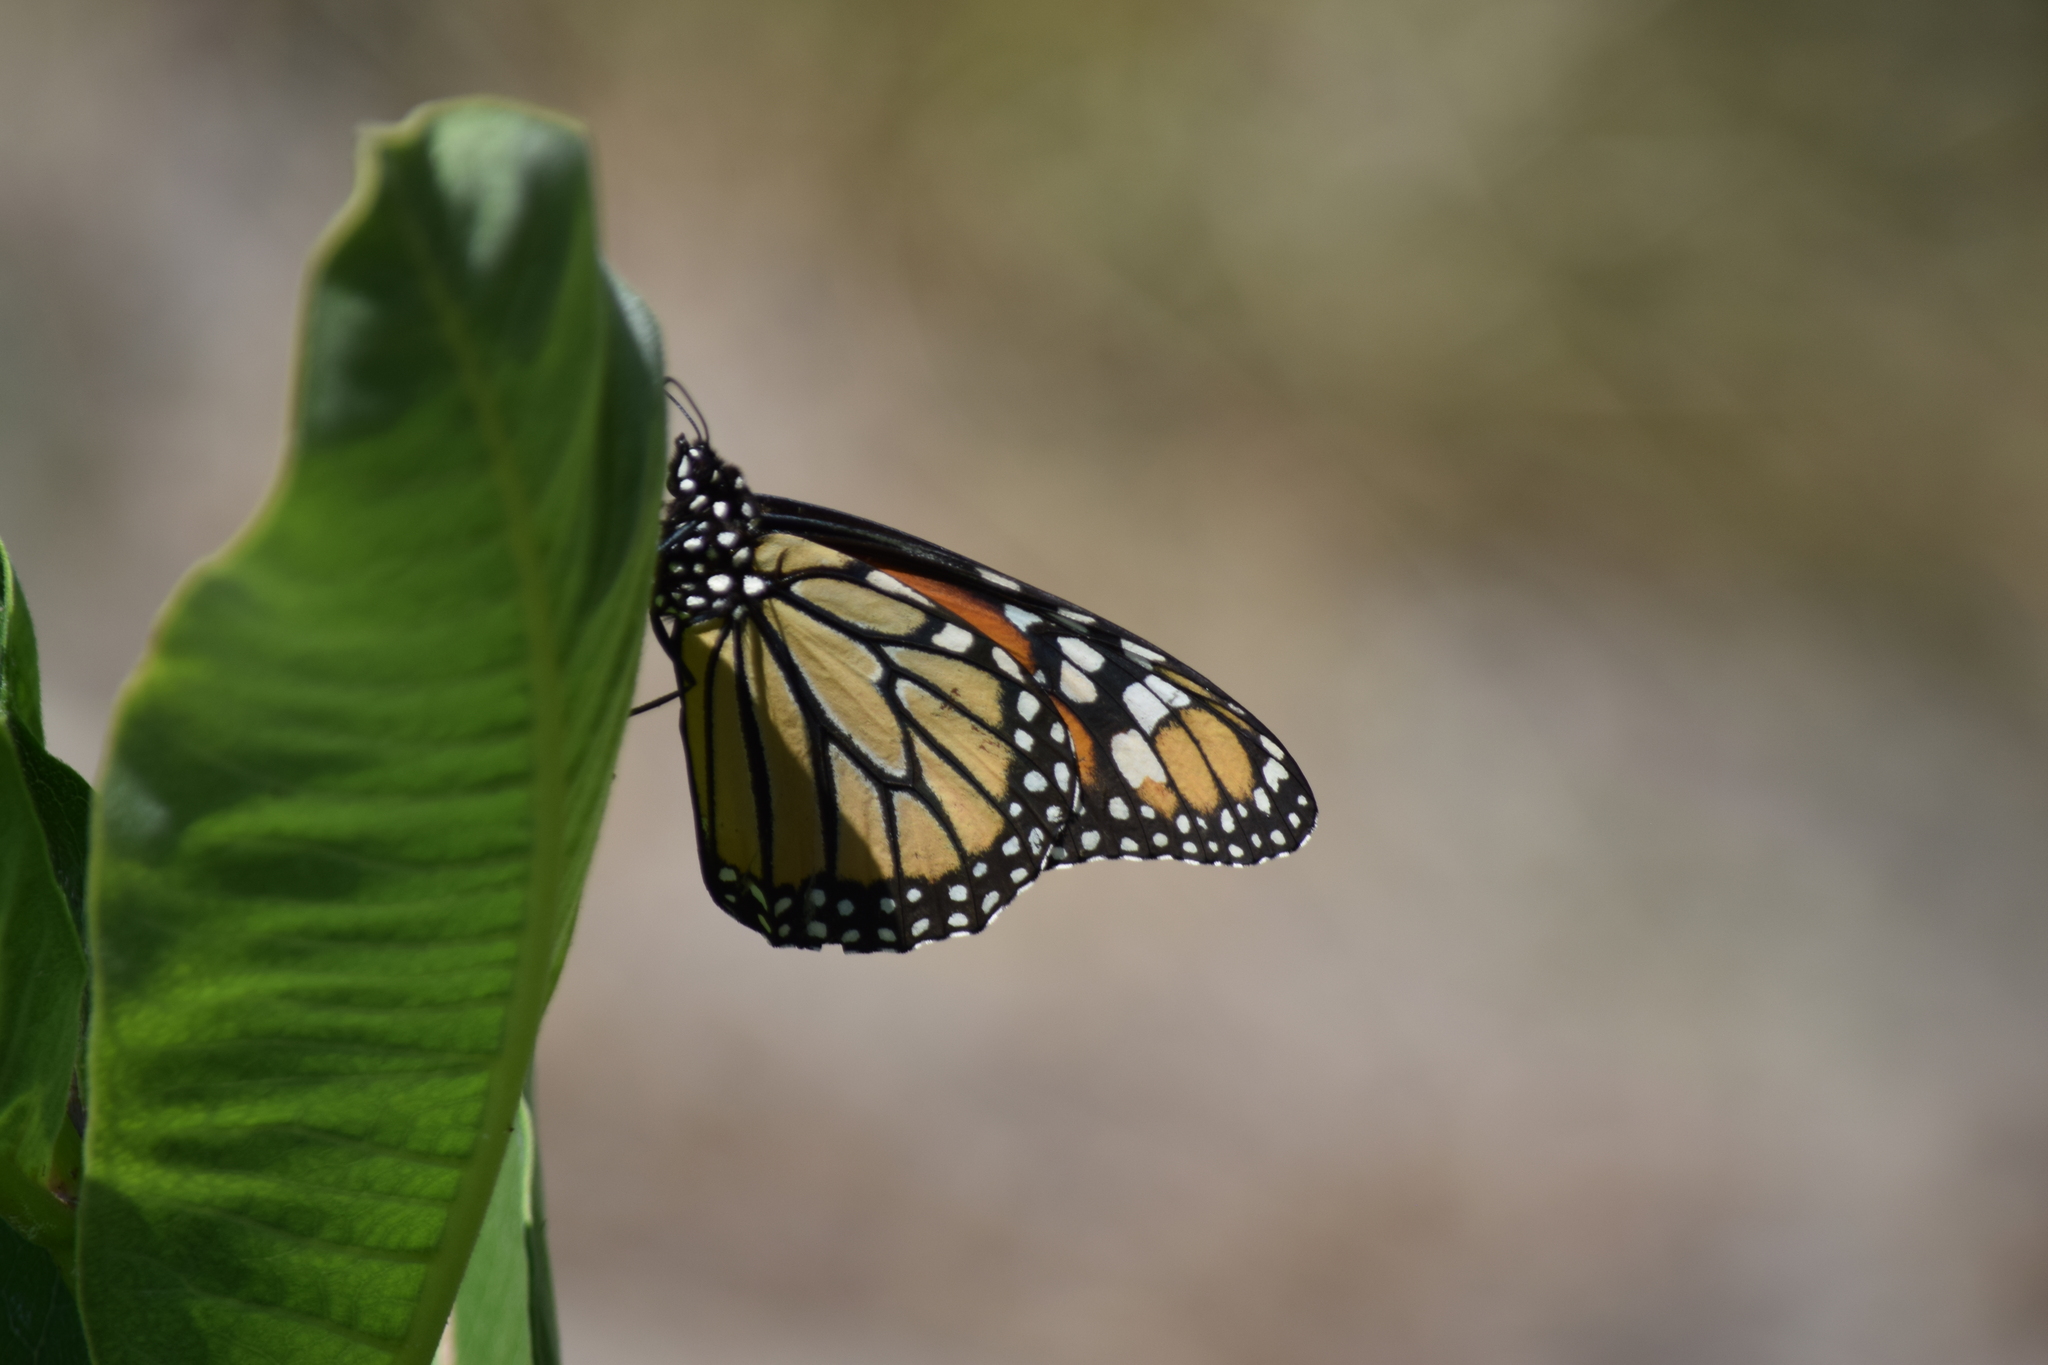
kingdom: Animalia
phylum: Arthropoda
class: Insecta
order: Lepidoptera
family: Nymphalidae
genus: Danaus
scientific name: Danaus plexippus
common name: Monarch
